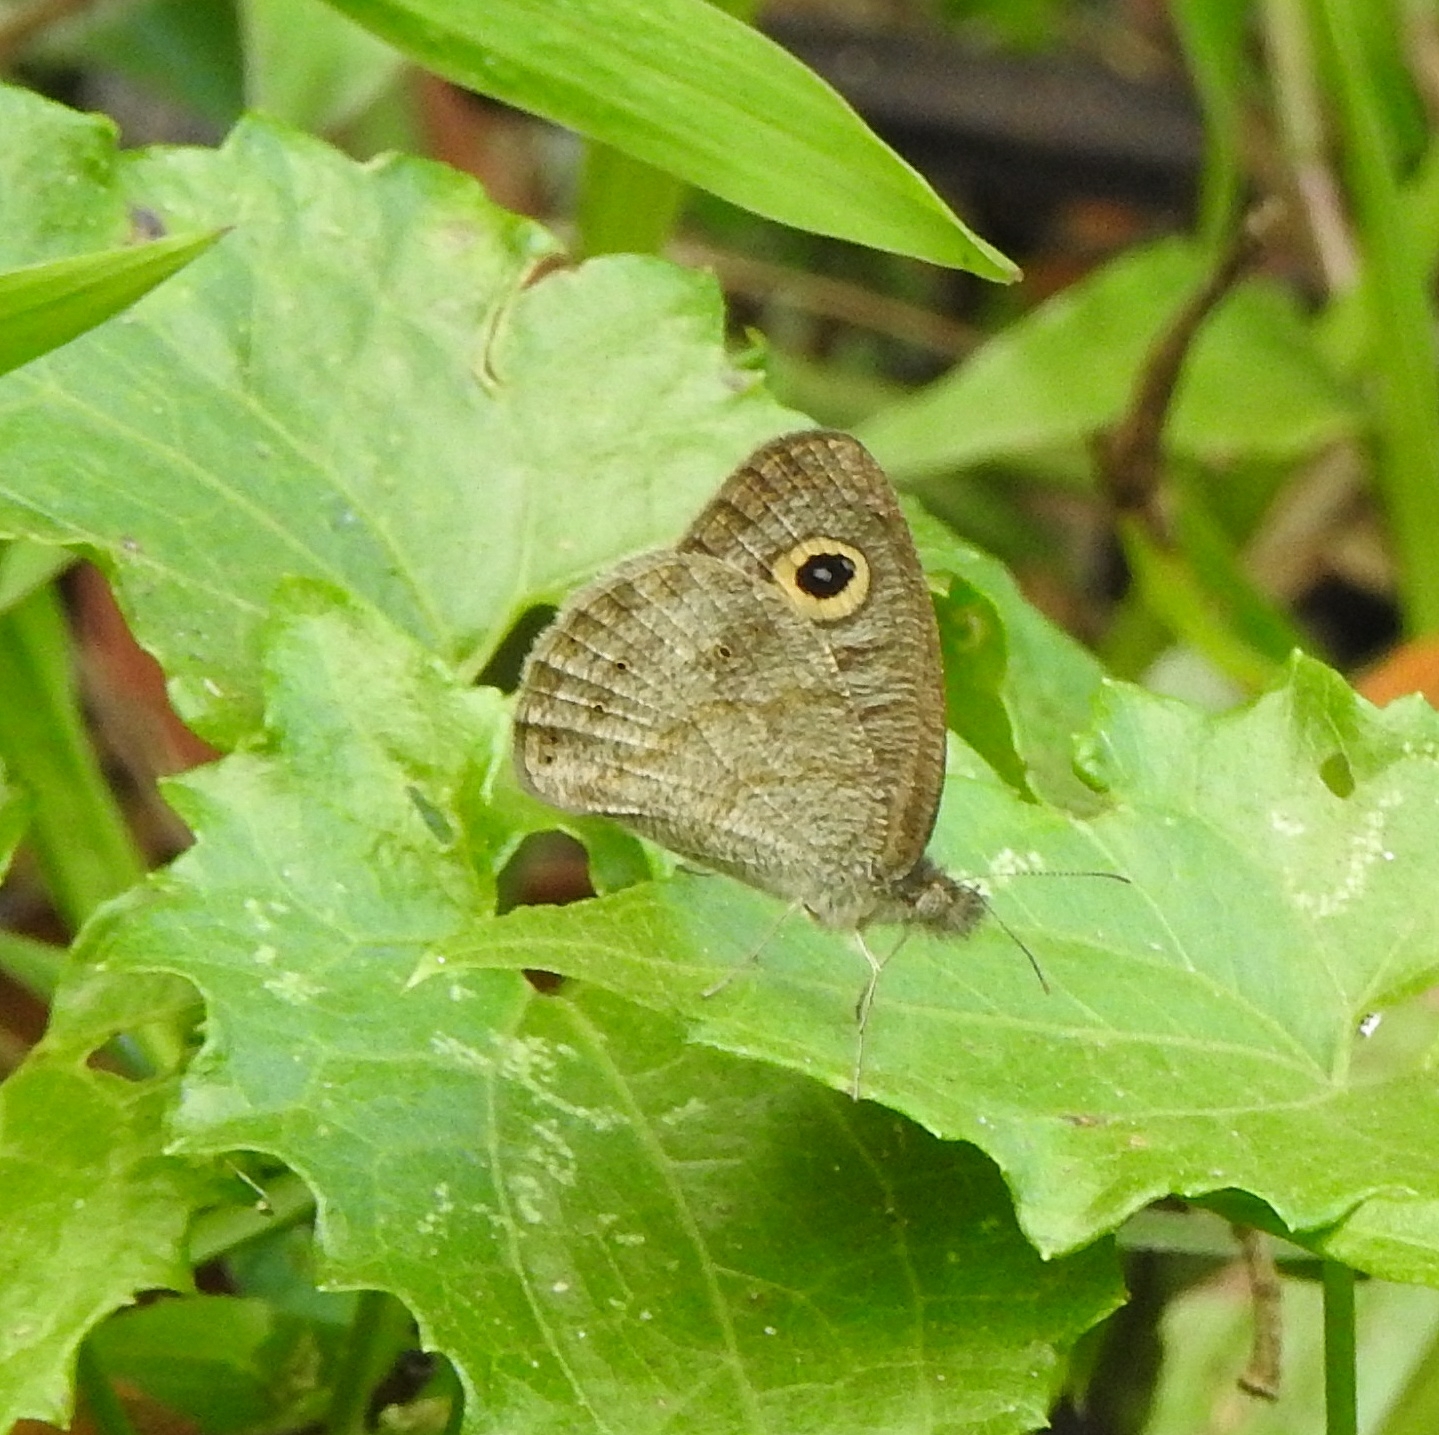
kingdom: Animalia
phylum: Arthropoda
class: Insecta
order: Lepidoptera
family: Nymphalidae
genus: Ypthima
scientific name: Ypthima baldus
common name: Common five-ring
